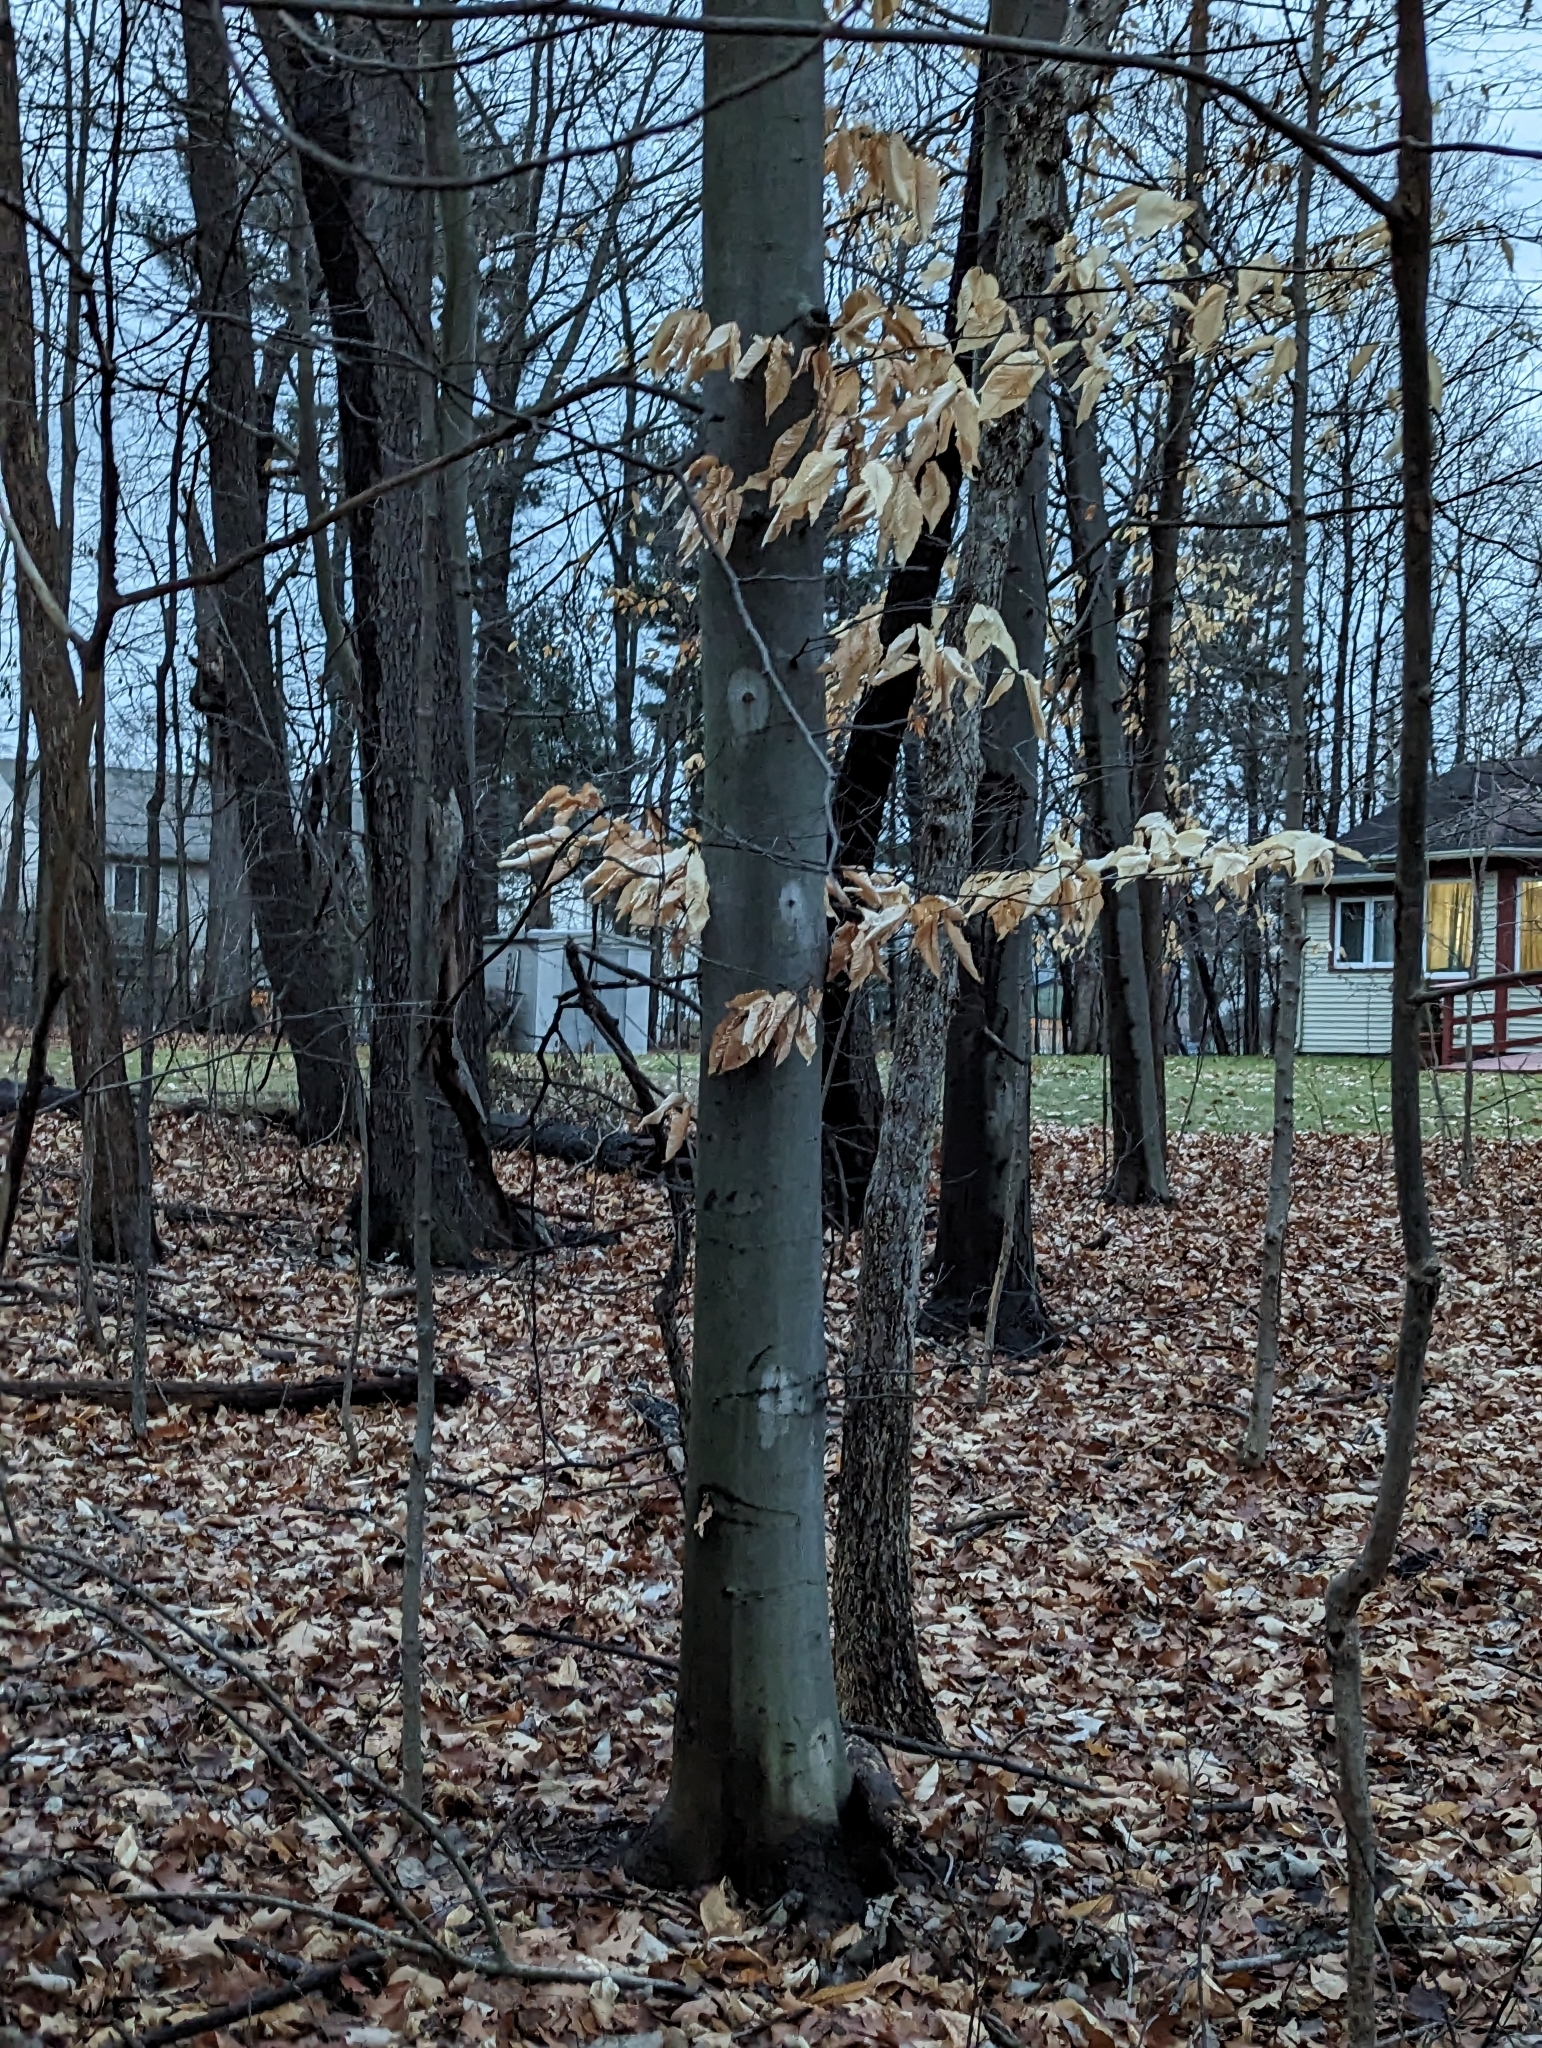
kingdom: Plantae
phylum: Tracheophyta
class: Magnoliopsida
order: Fagales
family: Fagaceae
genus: Fagus
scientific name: Fagus grandifolia
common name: American beech
